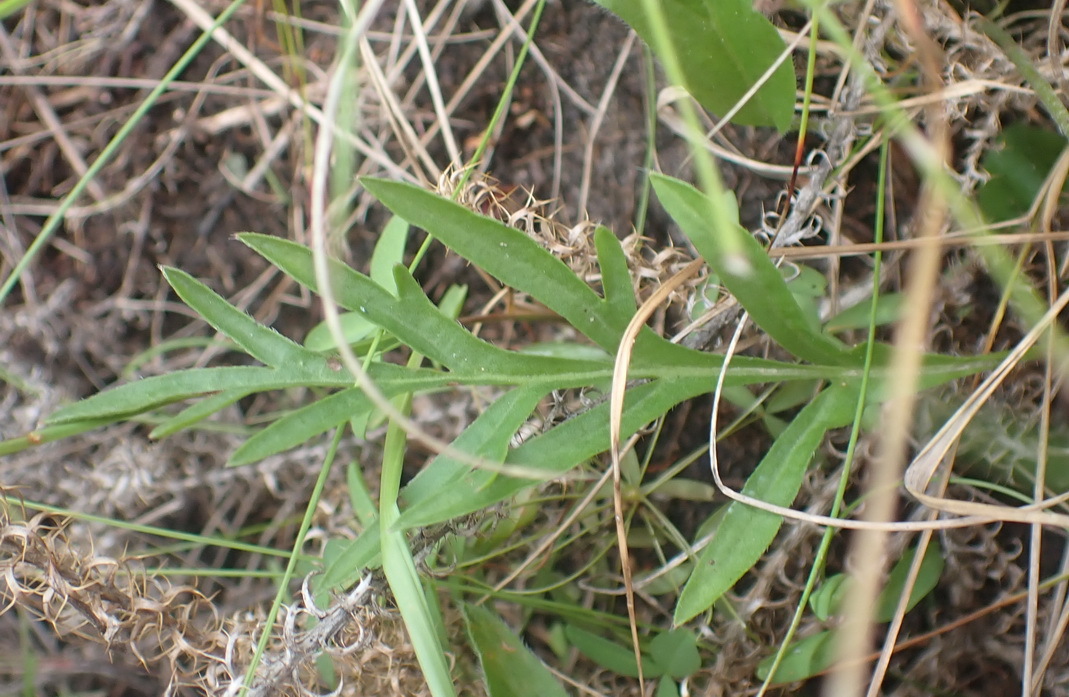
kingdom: Plantae
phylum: Tracheophyta
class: Magnoliopsida
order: Geraniales
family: Geraniaceae
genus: Pelargonium
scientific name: Pelargonium dipetalum
